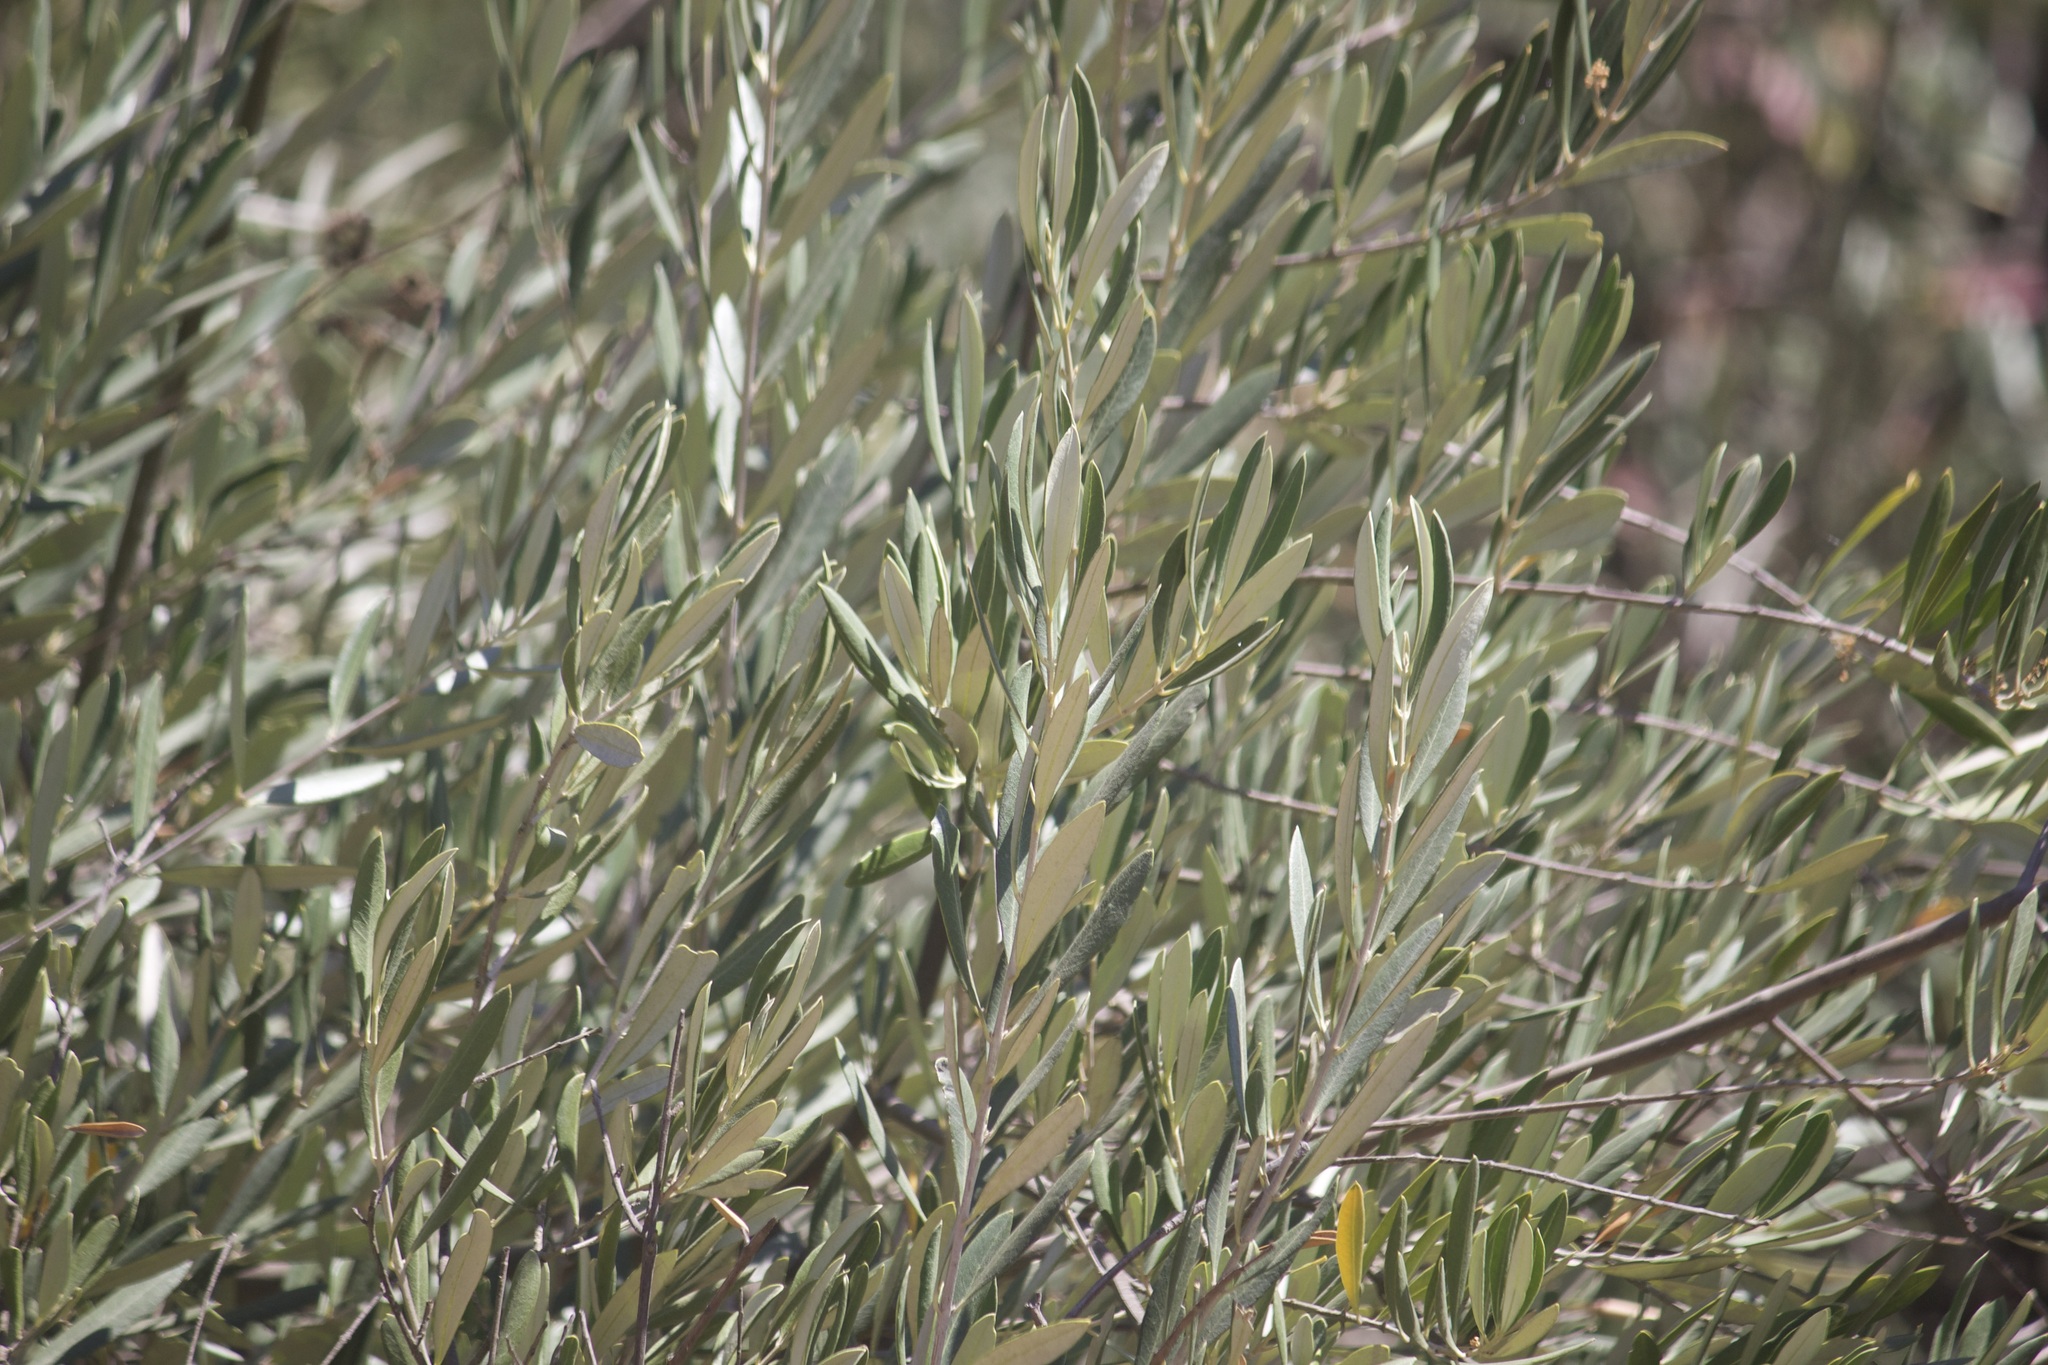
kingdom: Plantae
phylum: Tracheophyta
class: Magnoliopsida
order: Lamiales
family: Oleaceae
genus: Olea
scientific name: Olea europaea
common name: Olive
